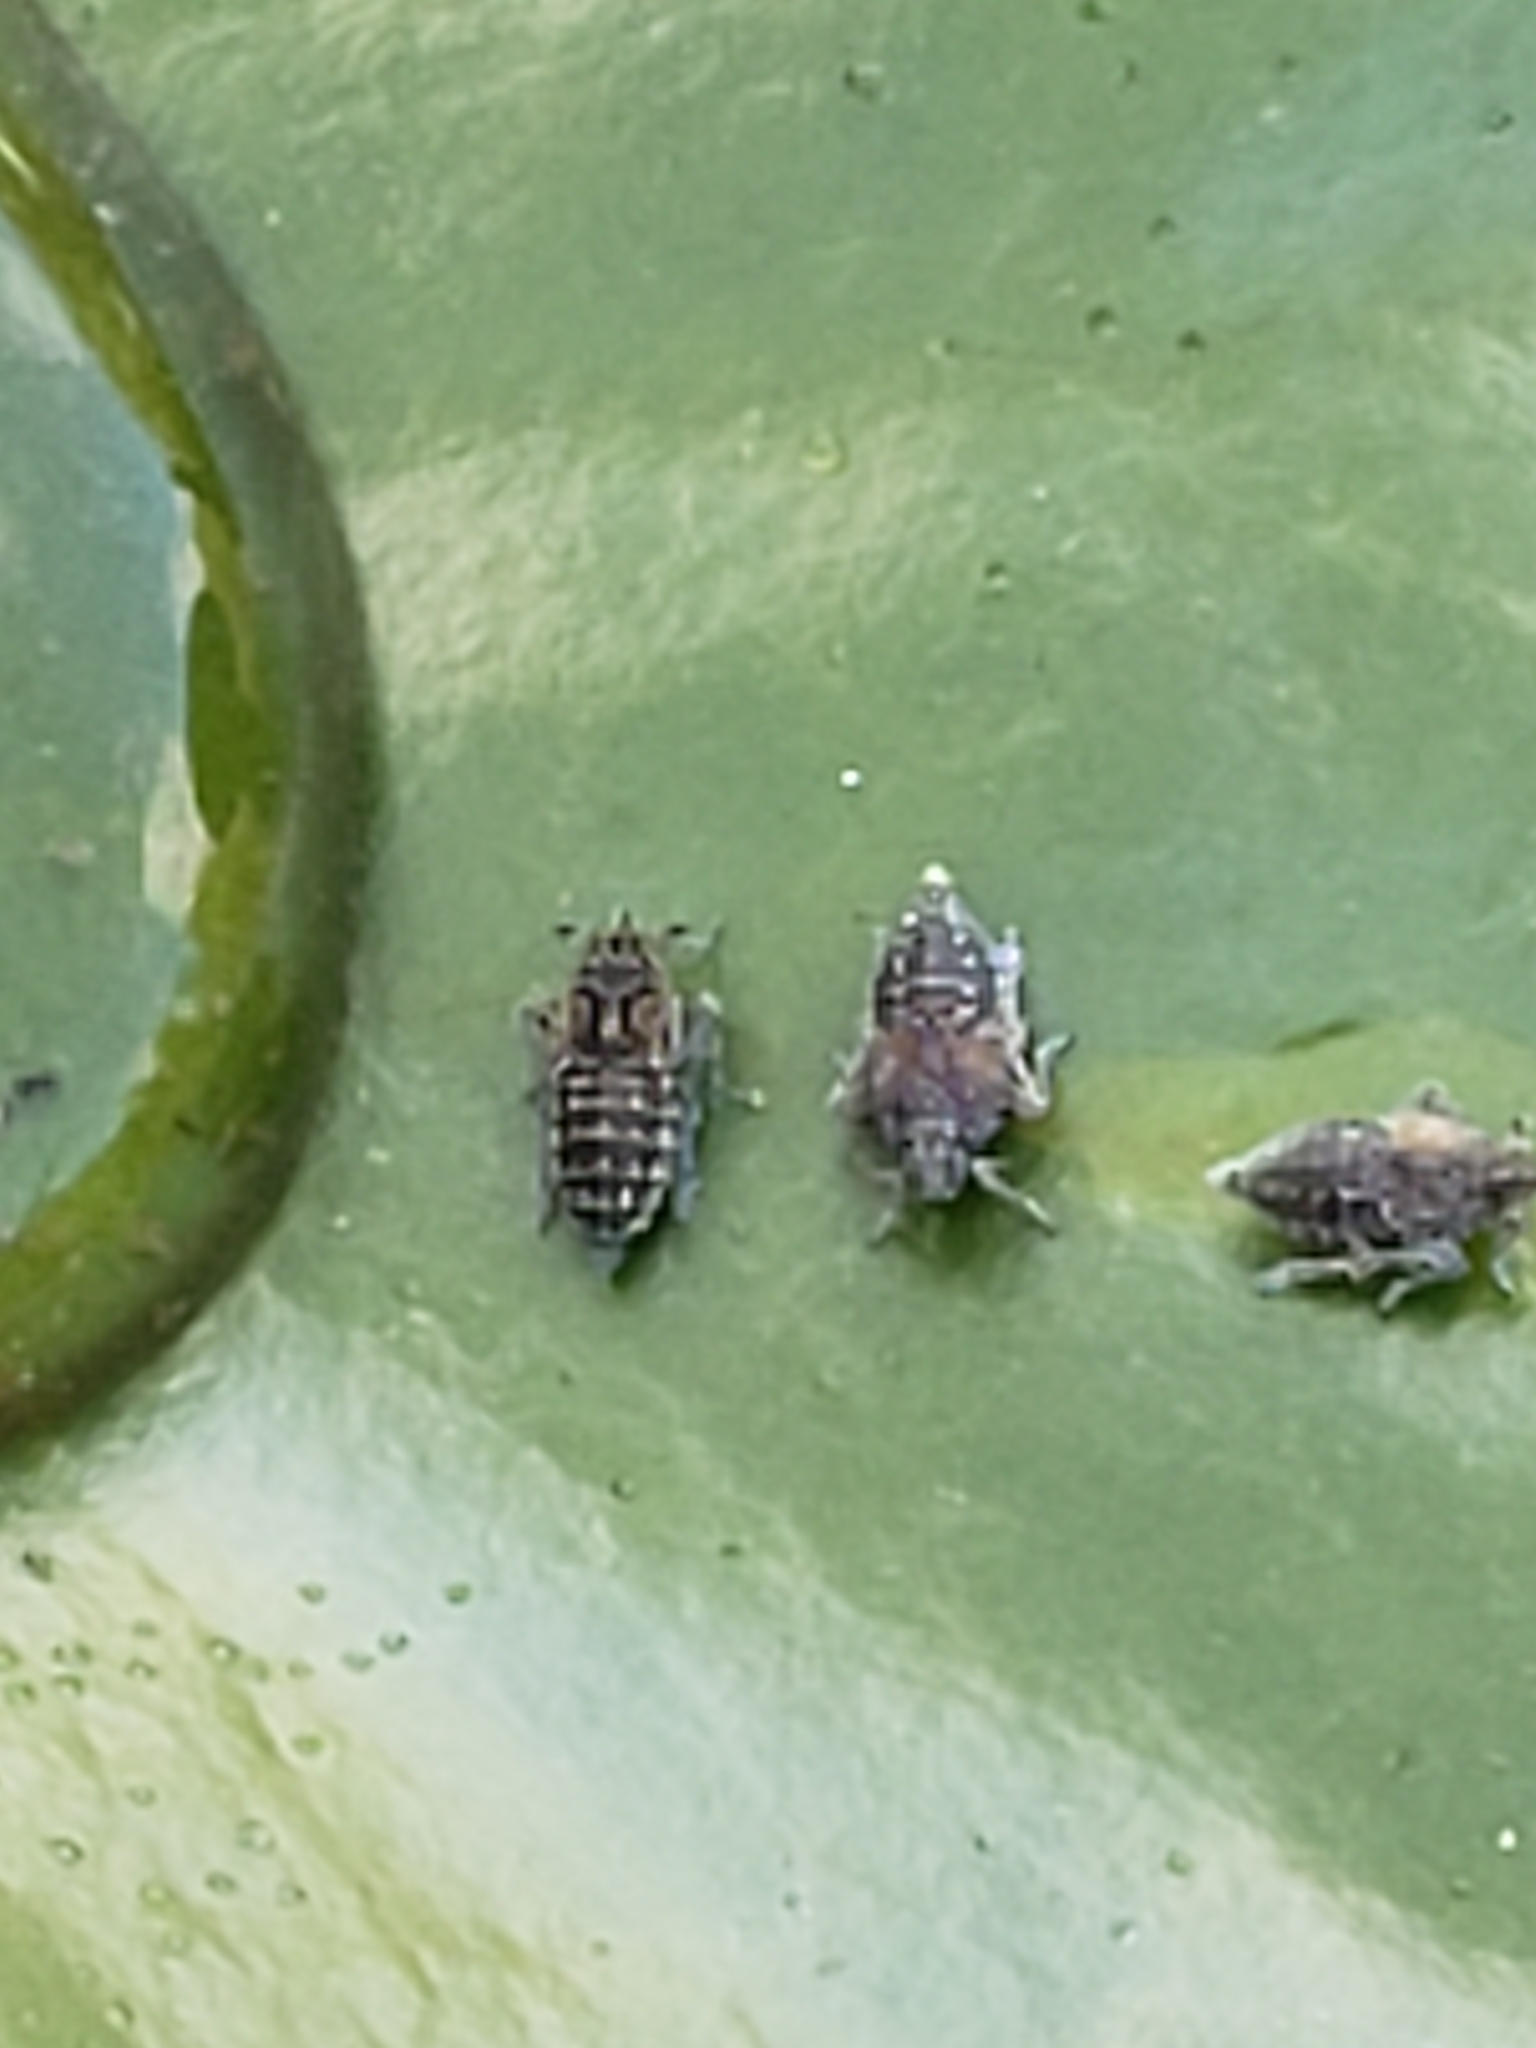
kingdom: Animalia
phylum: Arthropoda
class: Insecta
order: Hemiptera
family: Delphacidae
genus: Megamelus
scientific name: Megamelus davisi
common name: Planthopper
